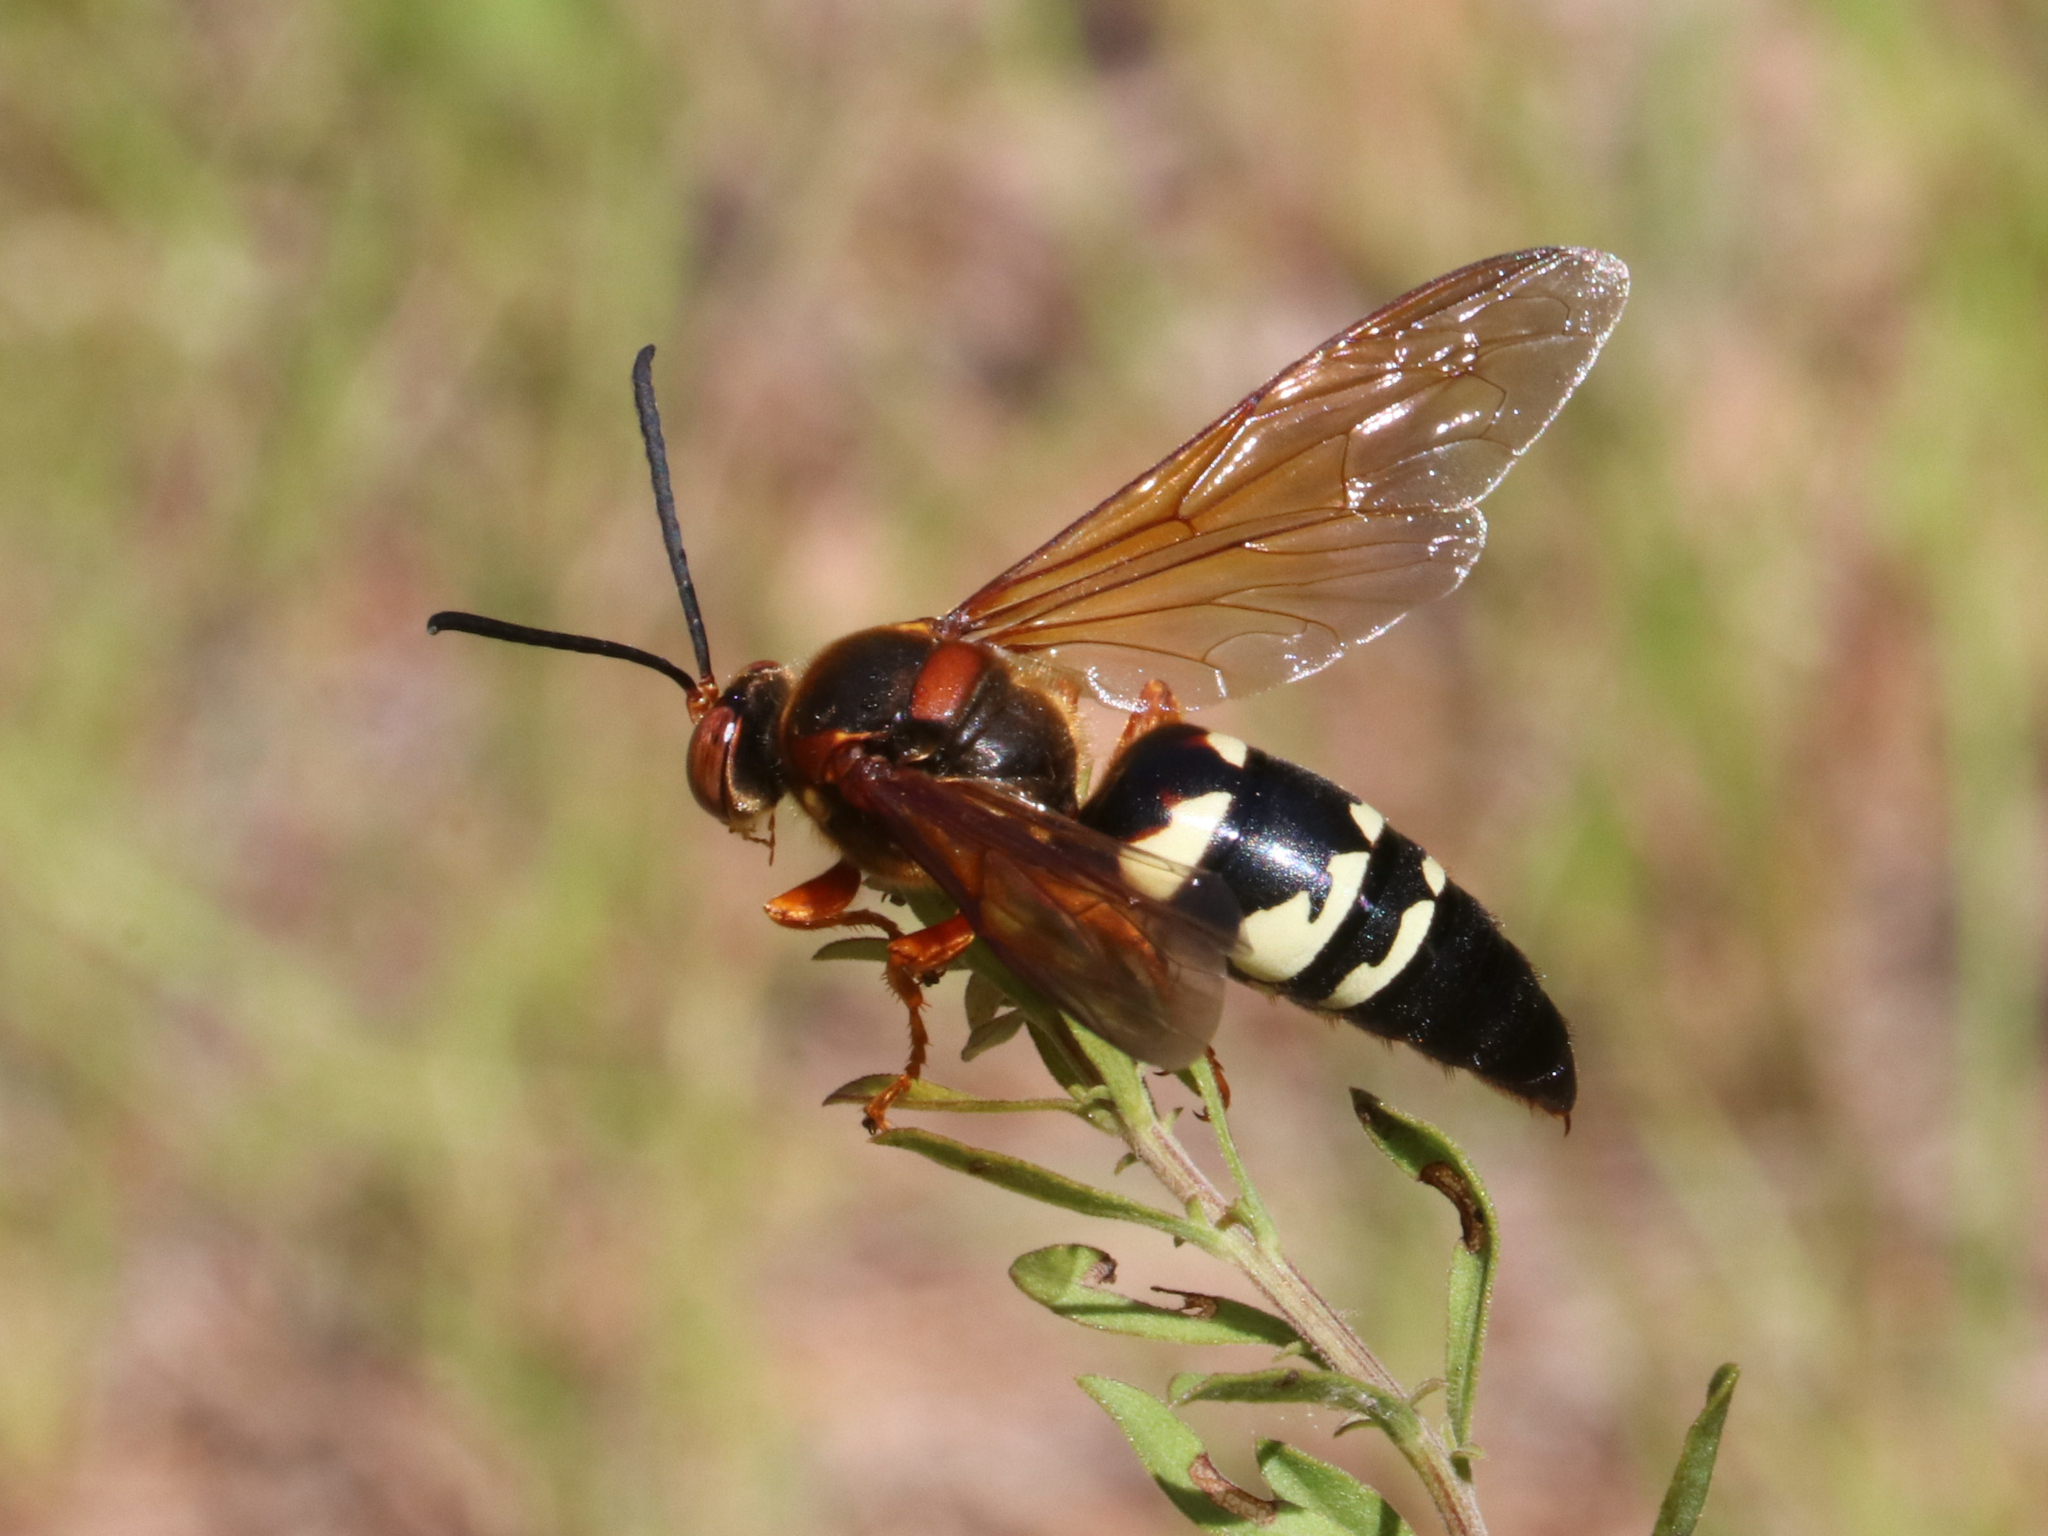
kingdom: Animalia
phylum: Arthropoda
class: Insecta
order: Hymenoptera
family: Crabronidae
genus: Sphecius
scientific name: Sphecius speciosus
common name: Cicada killer
